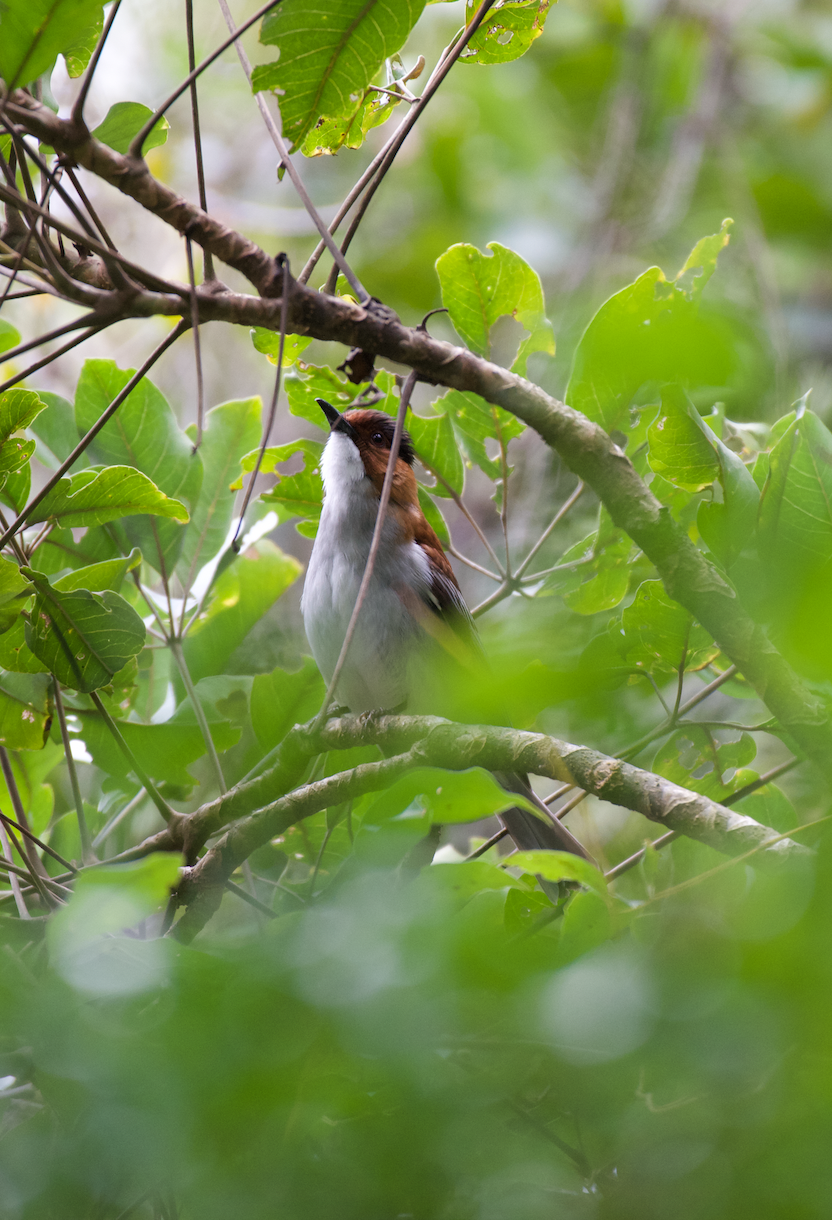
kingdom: Animalia
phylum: Chordata
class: Aves
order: Passeriformes
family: Pycnonotidae
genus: Hemixos
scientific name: Hemixos castanonotus
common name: Chestnut bulbul
